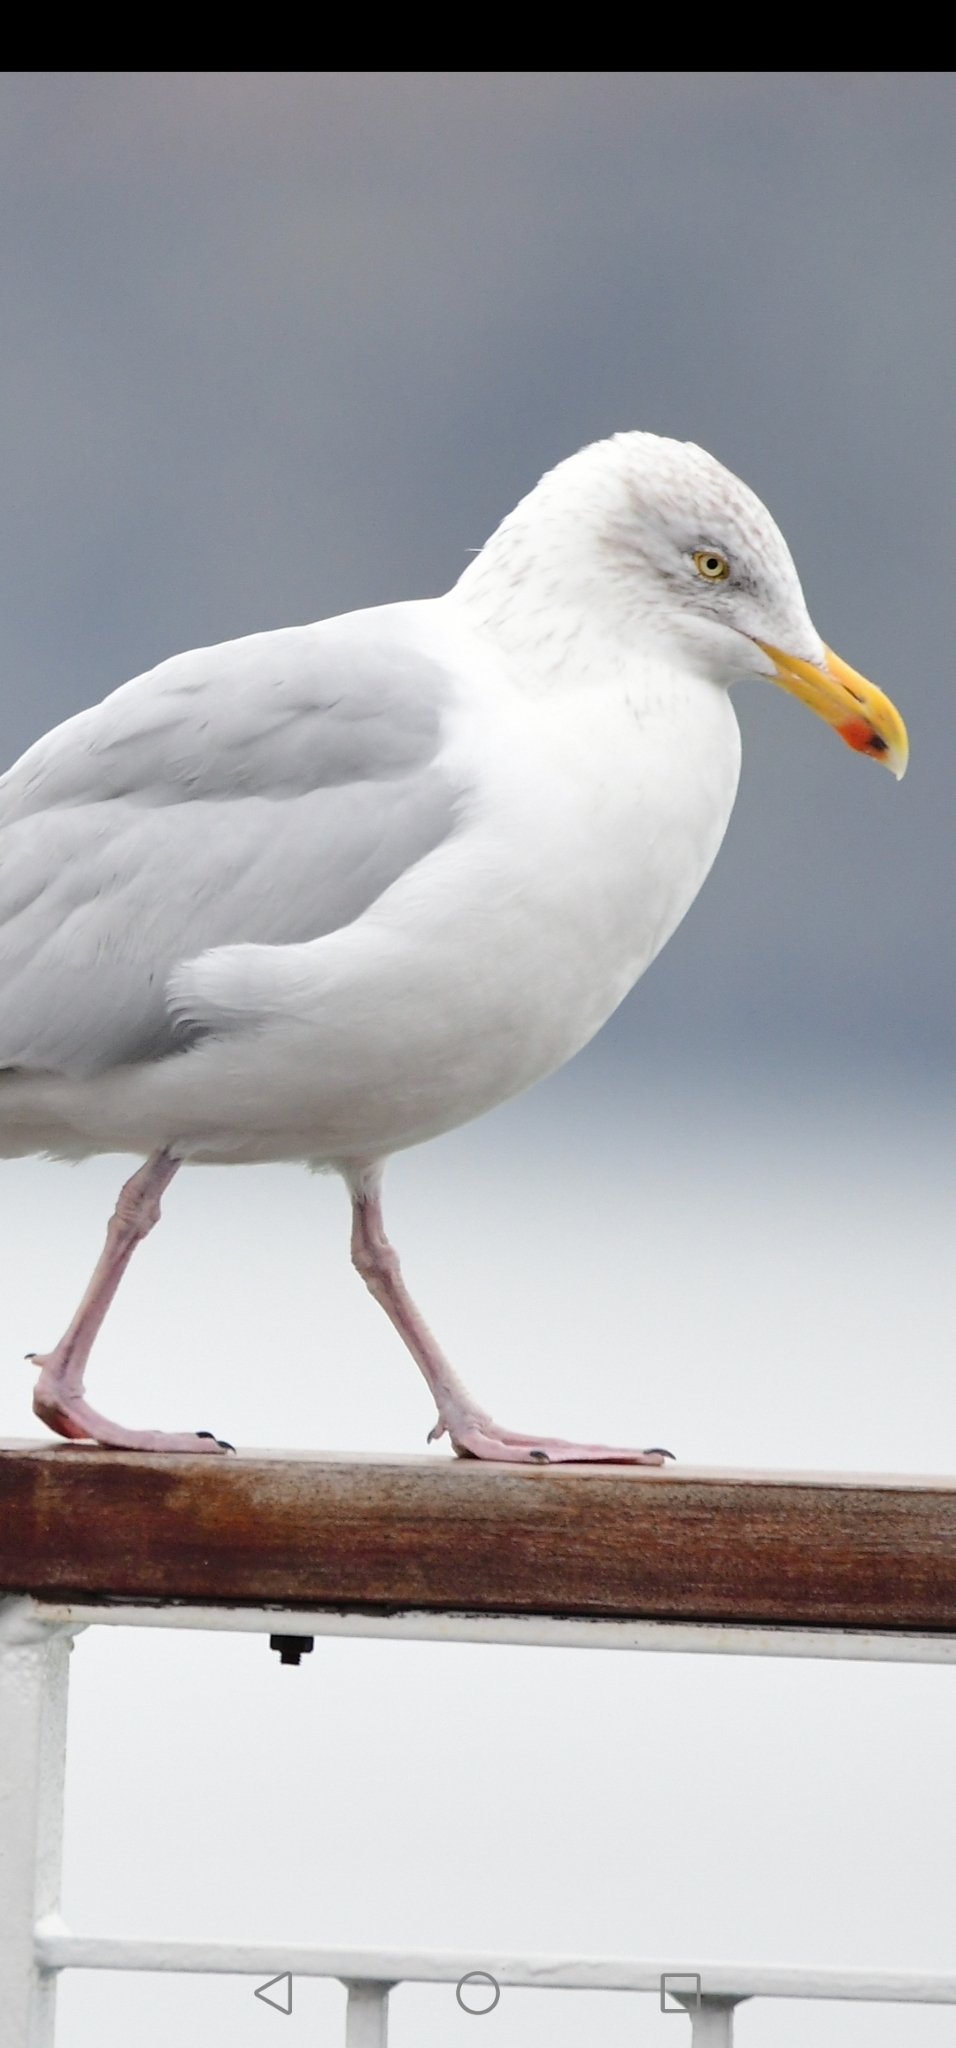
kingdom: Animalia
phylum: Chordata
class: Aves
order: Charadriiformes
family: Laridae
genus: Larus
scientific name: Larus argentatus
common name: Herring gull
